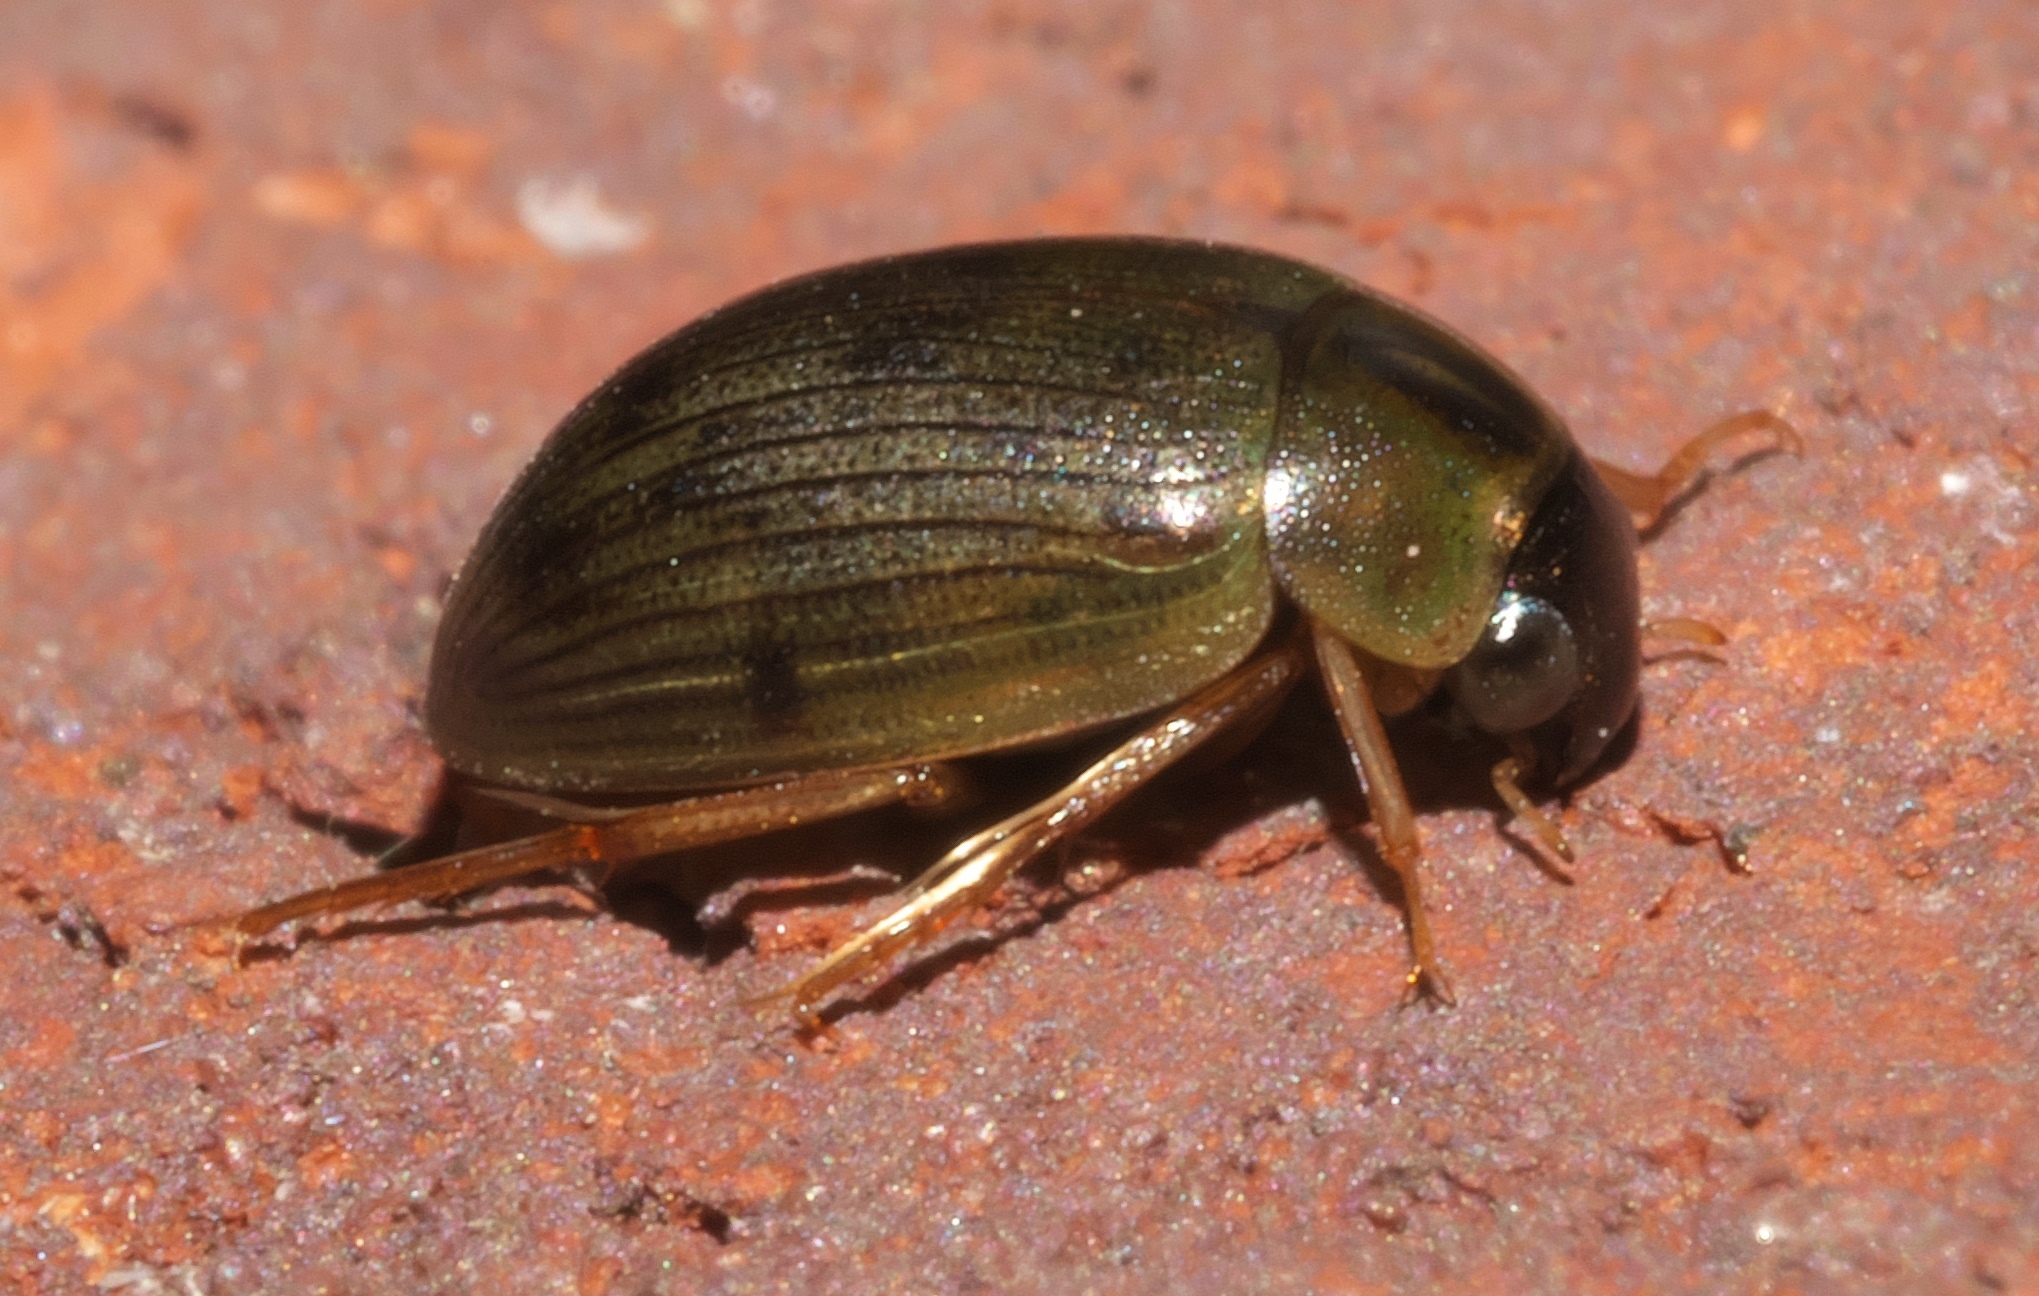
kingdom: Animalia
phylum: Arthropoda
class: Insecta
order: Coleoptera
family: Hydrophilidae
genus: Berosus
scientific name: Berosus
